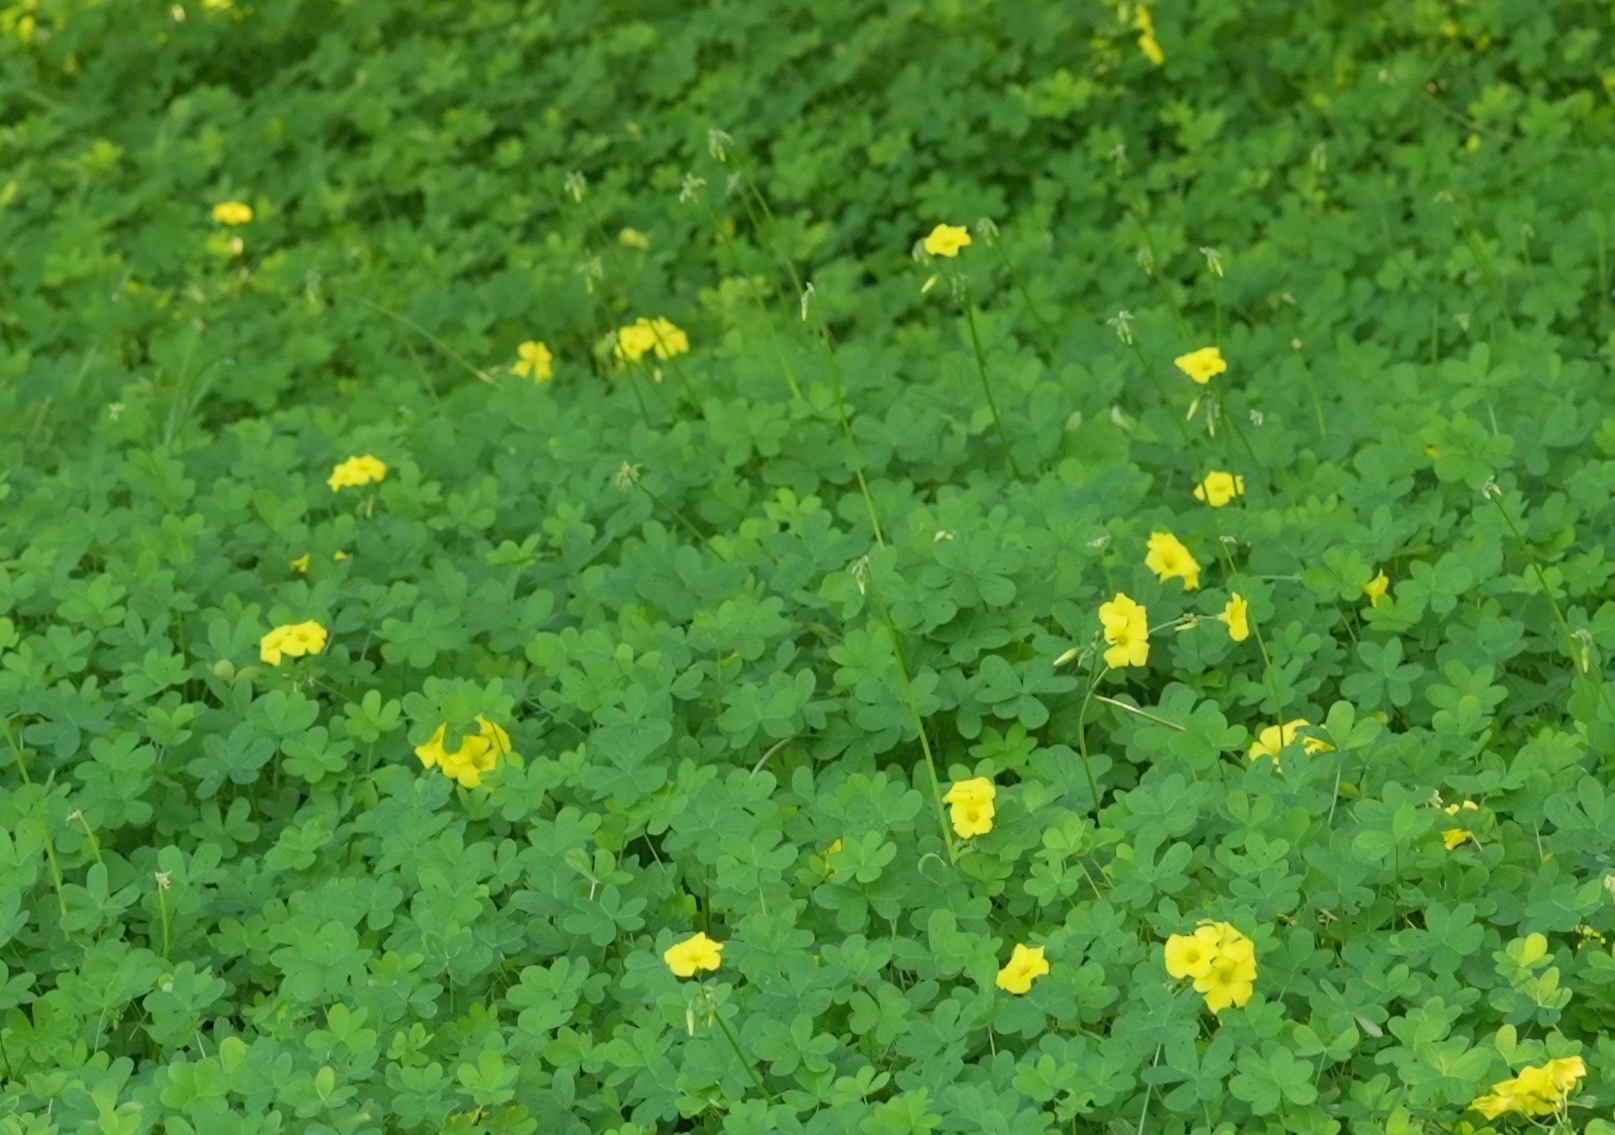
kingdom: Plantae
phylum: Tracheophyta
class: Magnoliopsida
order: Oxalidales
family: Oxalidaceae
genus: Oxalis
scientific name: Oxalis pes-caprae
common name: Bermuda-buttercup
